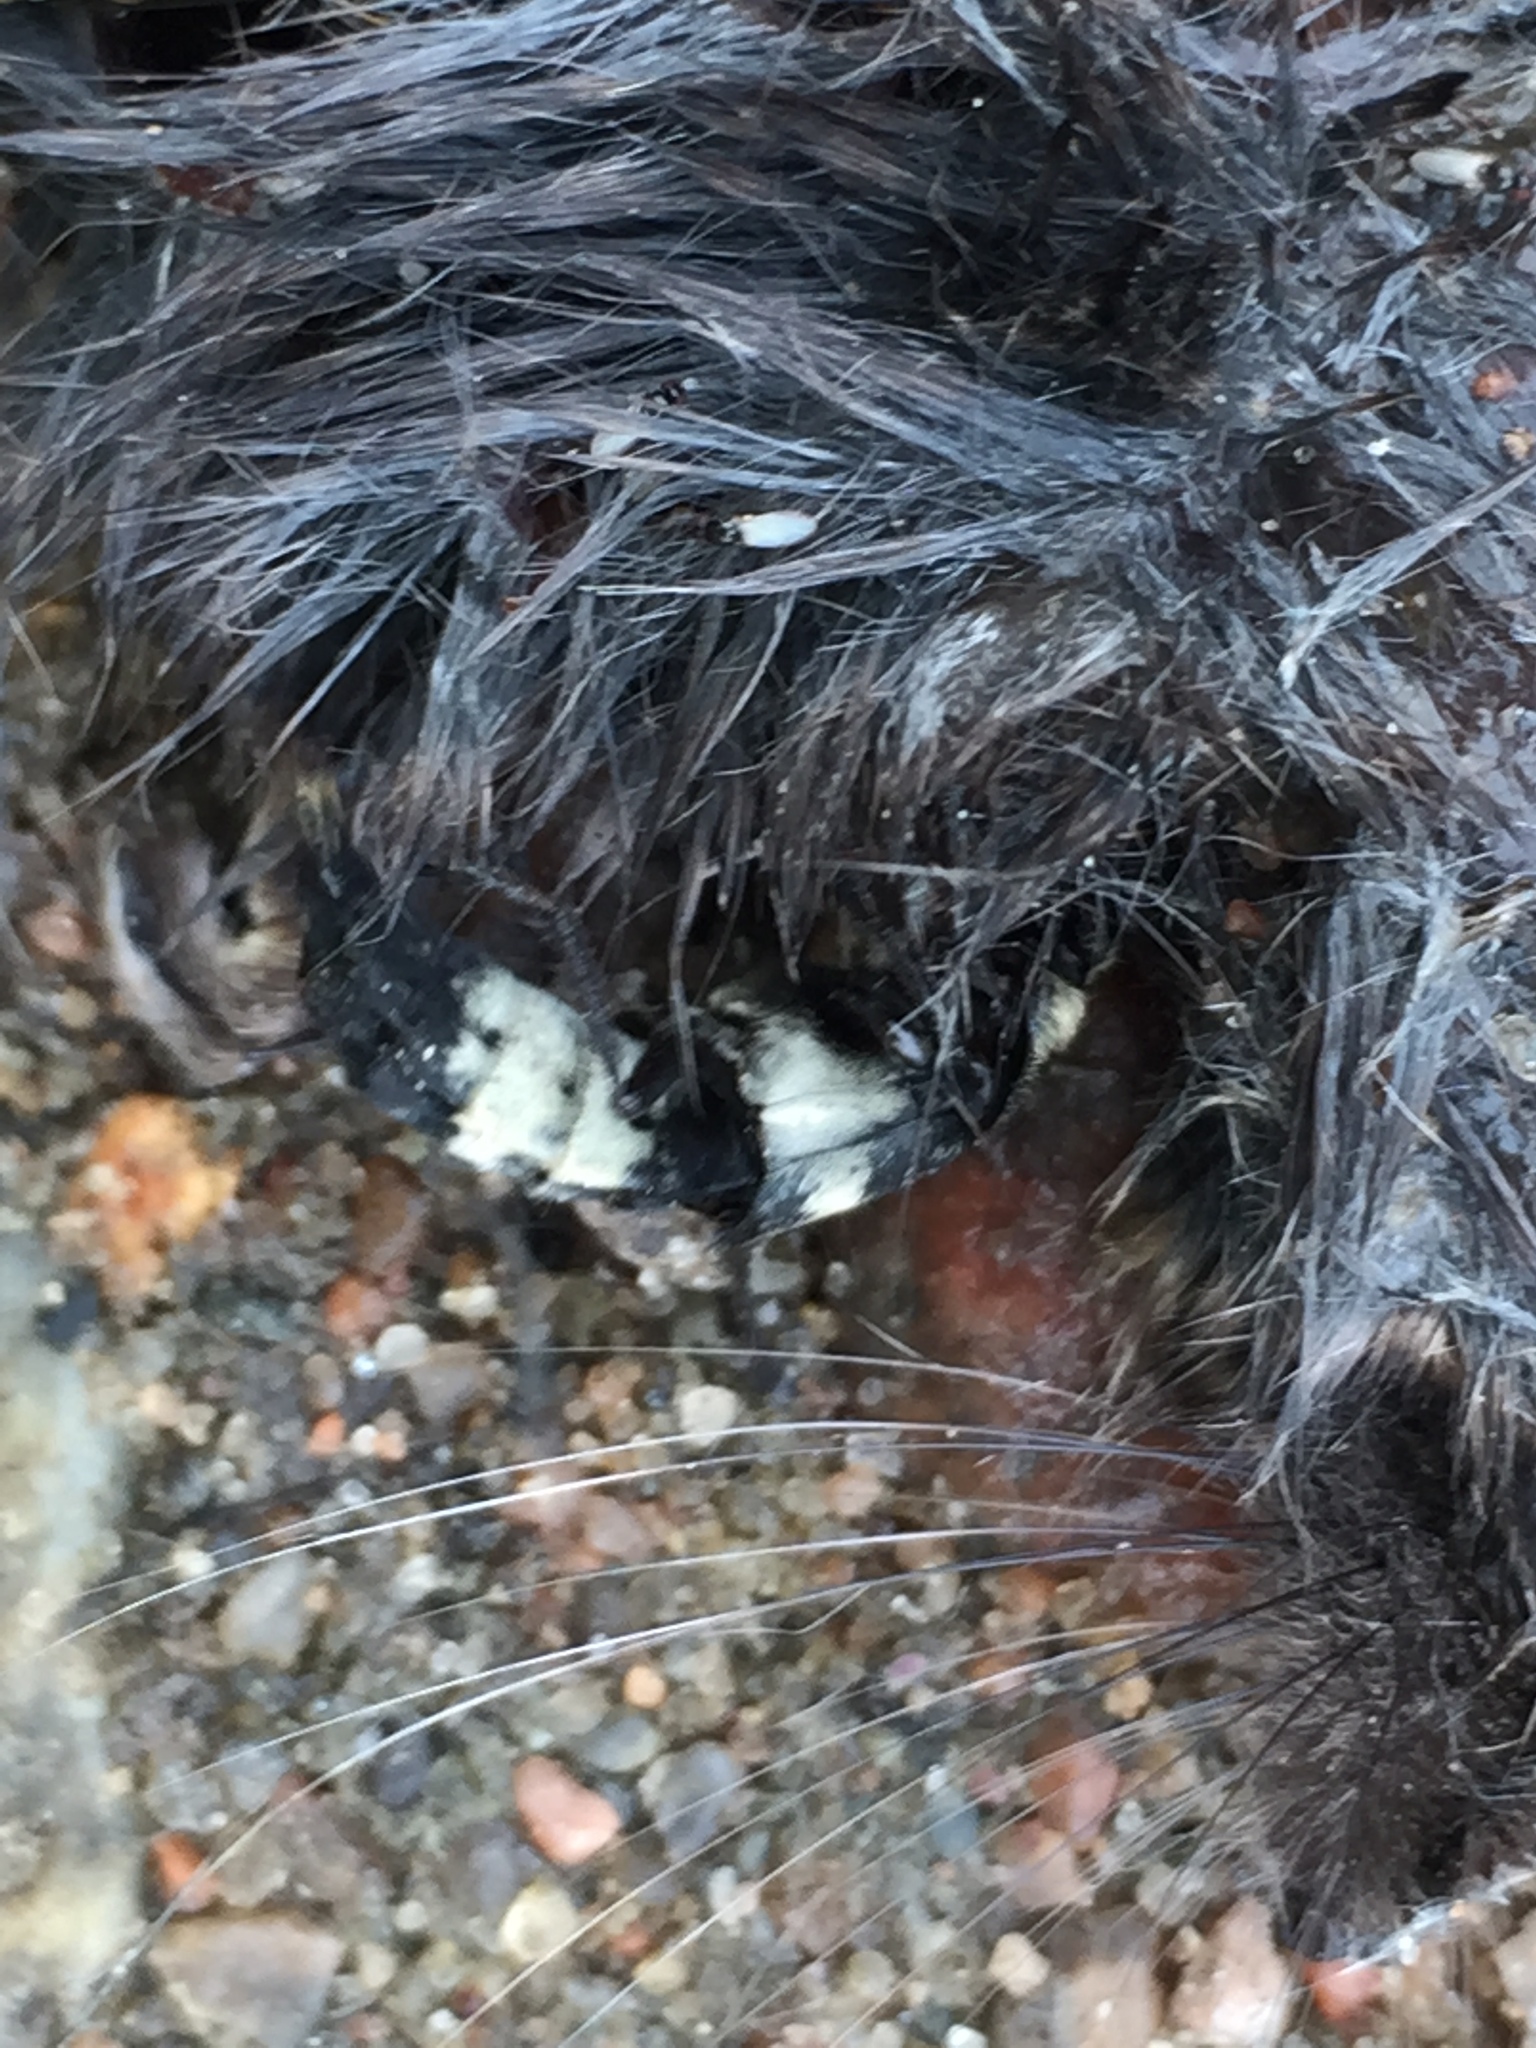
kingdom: Animalia
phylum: Arthropoda
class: Insecta
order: Coleoptera
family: Staphylinidae
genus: Creophilus
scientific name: Creophilus maxillosus
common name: Hairy rove beetle
